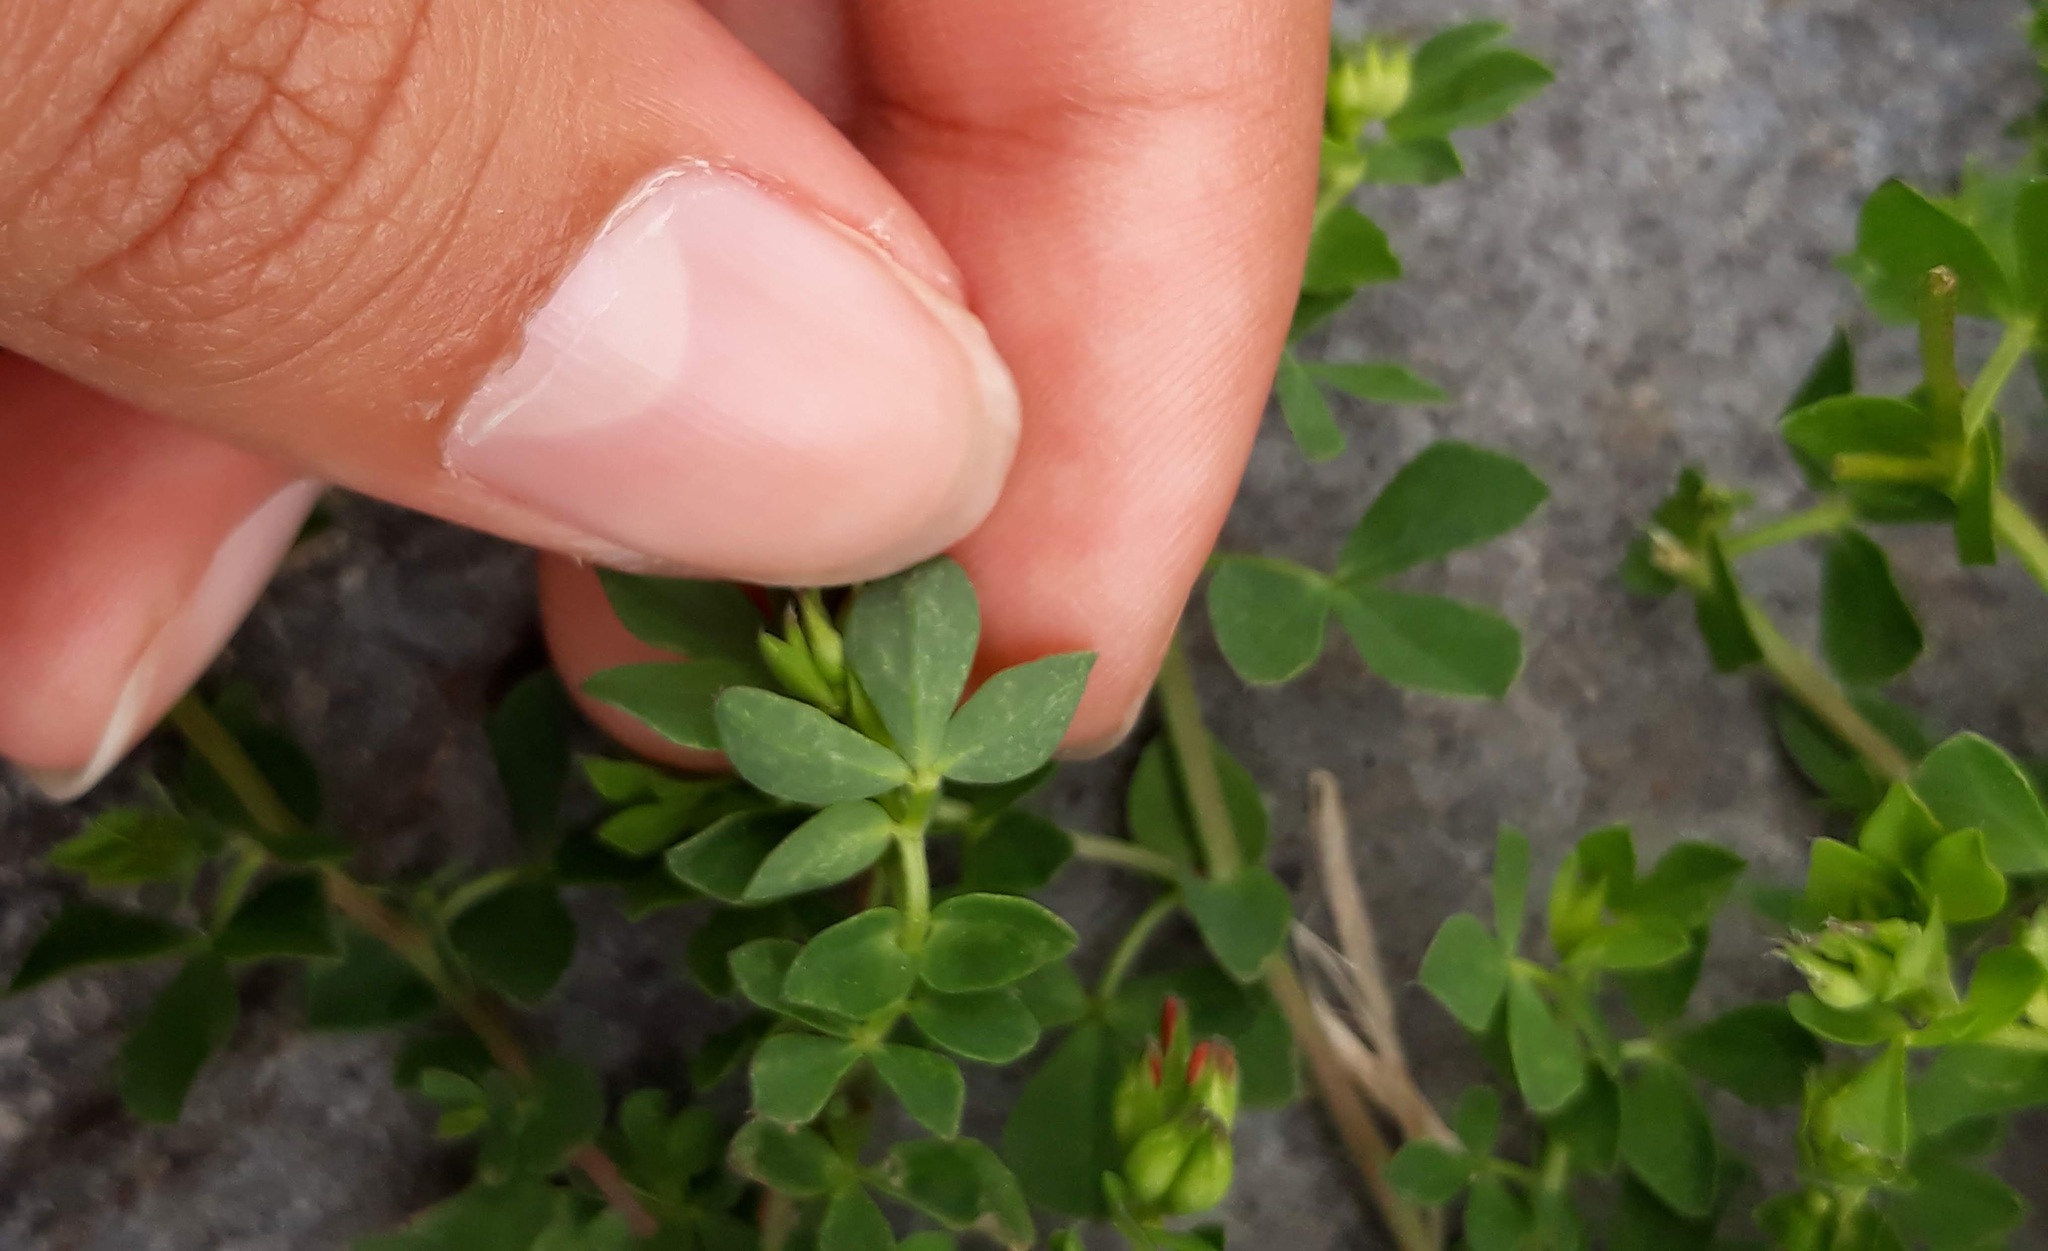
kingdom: Plantae
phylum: Tracheophyta
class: Magnoliopsida
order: Fabales
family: Fabaceae
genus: Lotus
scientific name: Lotus corniculatus
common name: Common bird's-foot-trefoil
